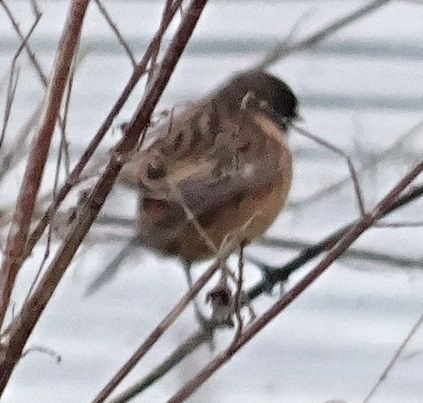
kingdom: Animalia
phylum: Chordata
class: Aves
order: Passeriformes
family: Muscicapidae
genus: Saxicola
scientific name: Saxicola rubicola
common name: European stonechat
